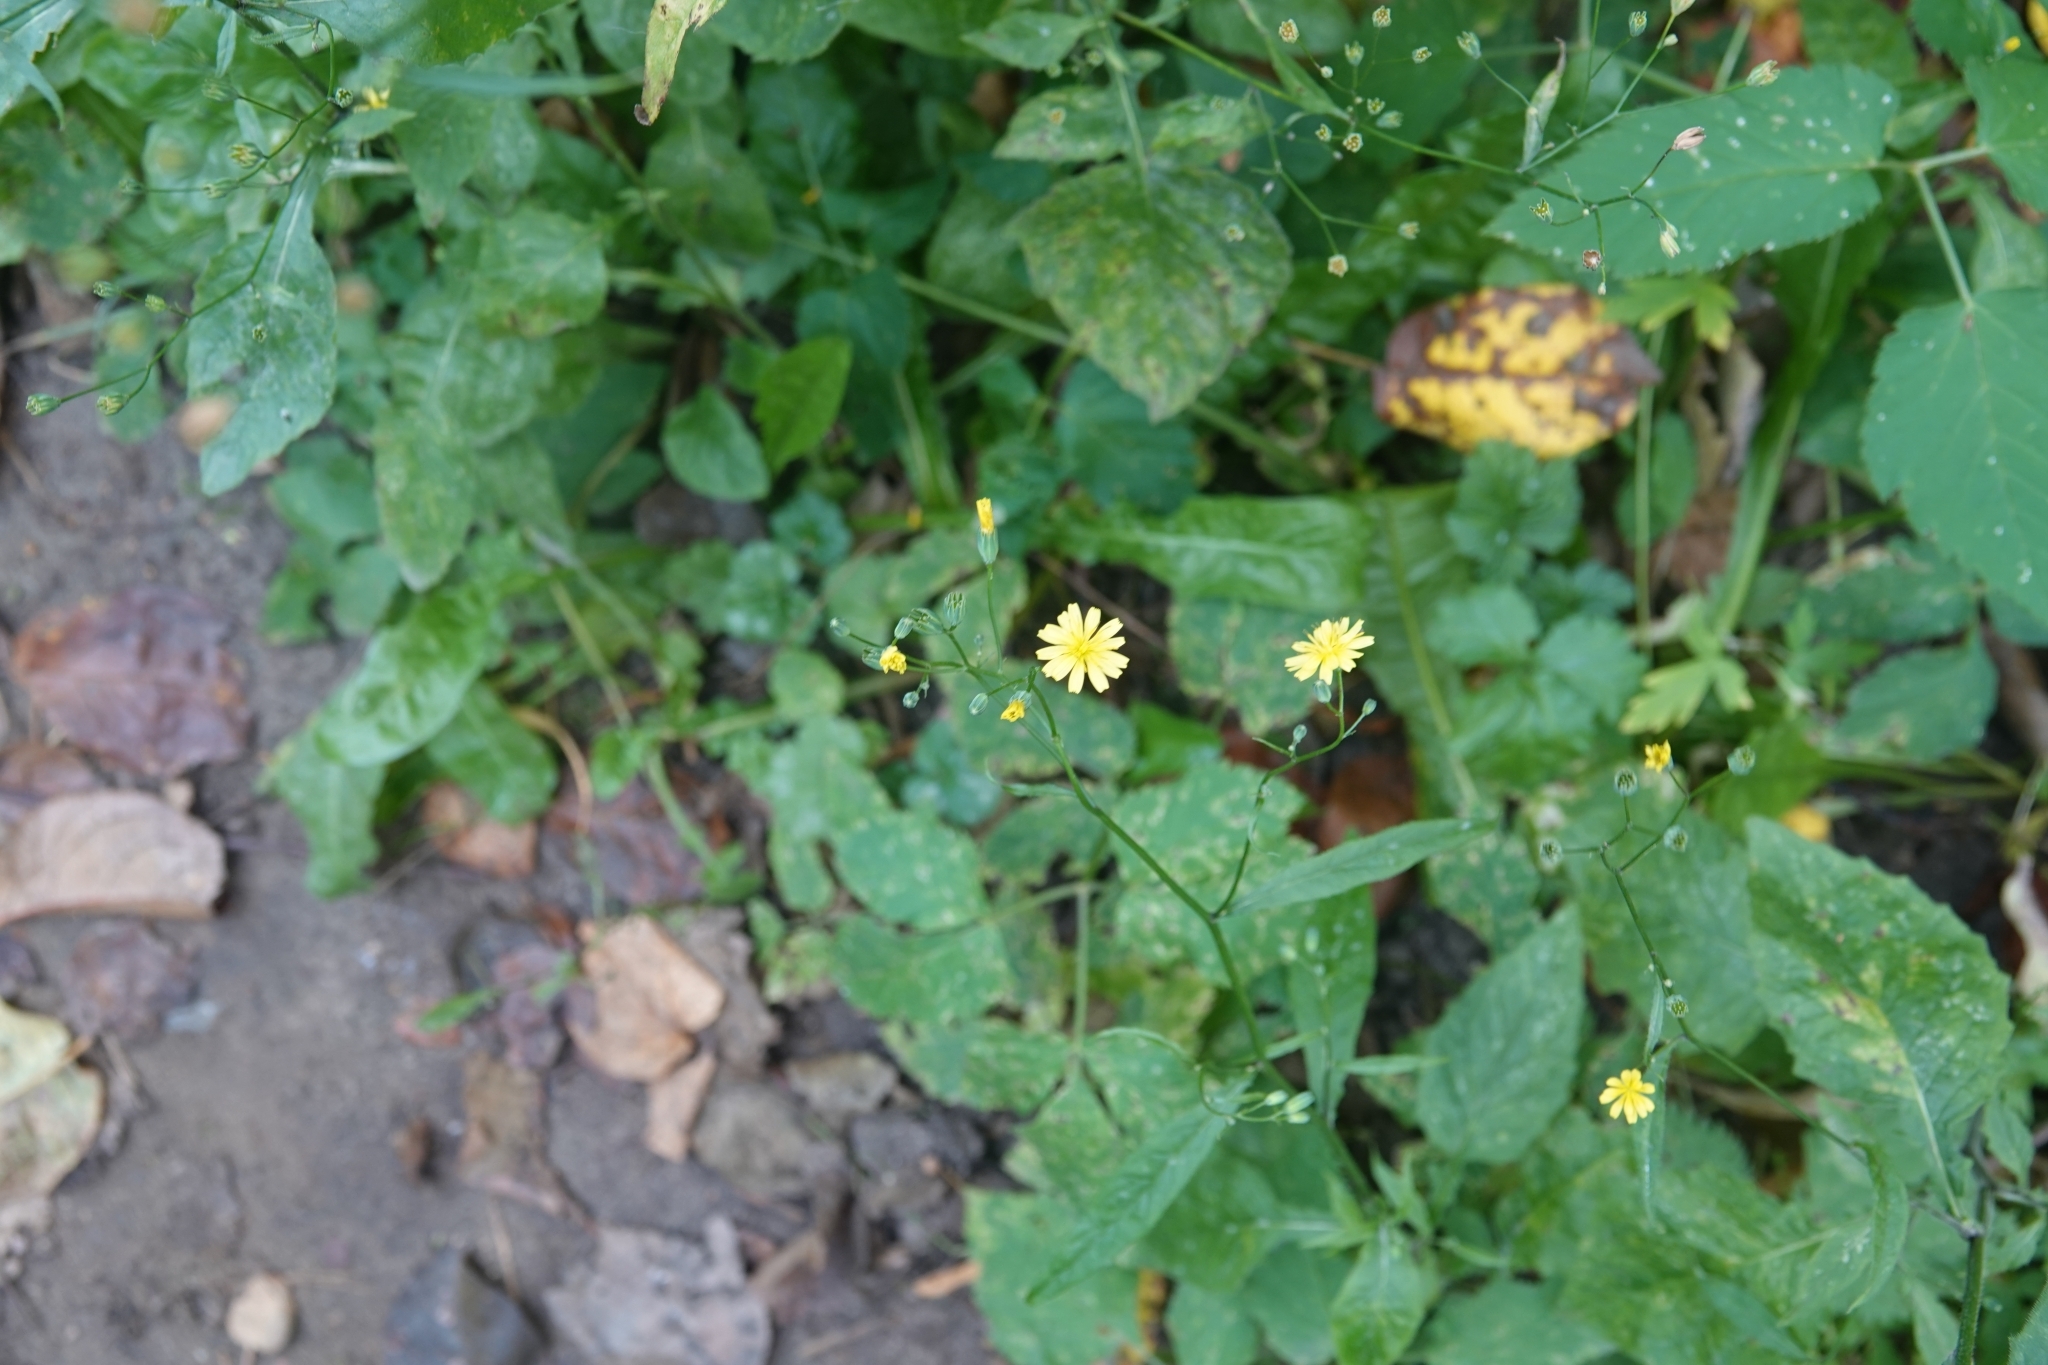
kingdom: Plantae
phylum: Tracheophyta
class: Magnoliopsida
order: Asterales
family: Asteraceae
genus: Lapsana
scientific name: Lapsana communis
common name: Nipplewort
